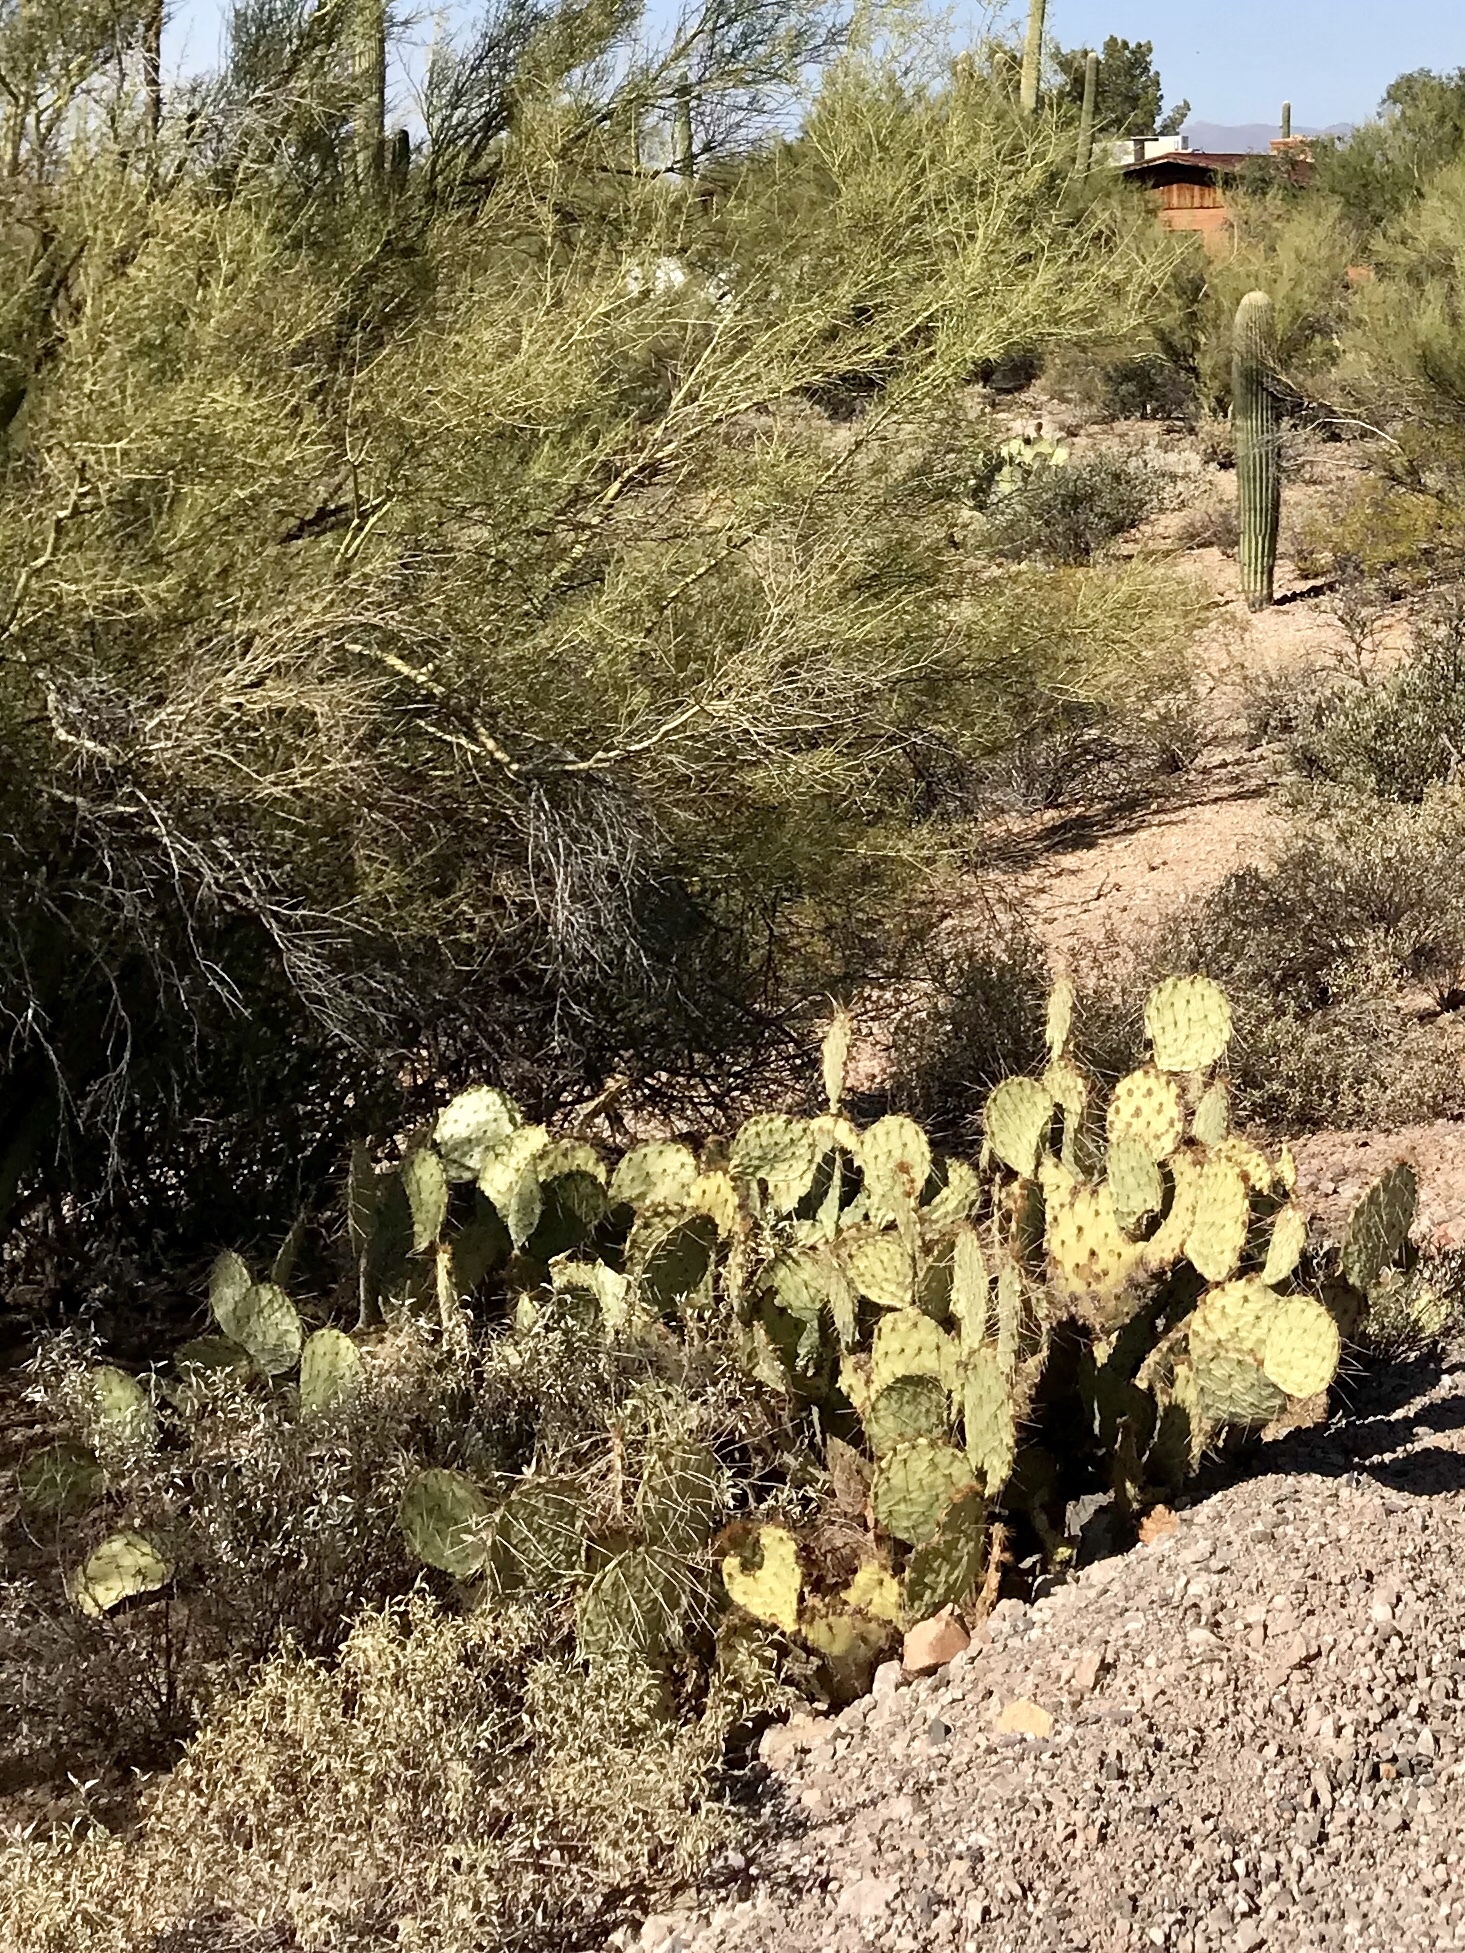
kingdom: Plantae
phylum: Tracheophyta
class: Magnoliopsida
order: Caryophyllales
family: Cactaceae
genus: Opuntia
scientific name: Opuntia phaeacantha
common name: New mexico prickly-pear
